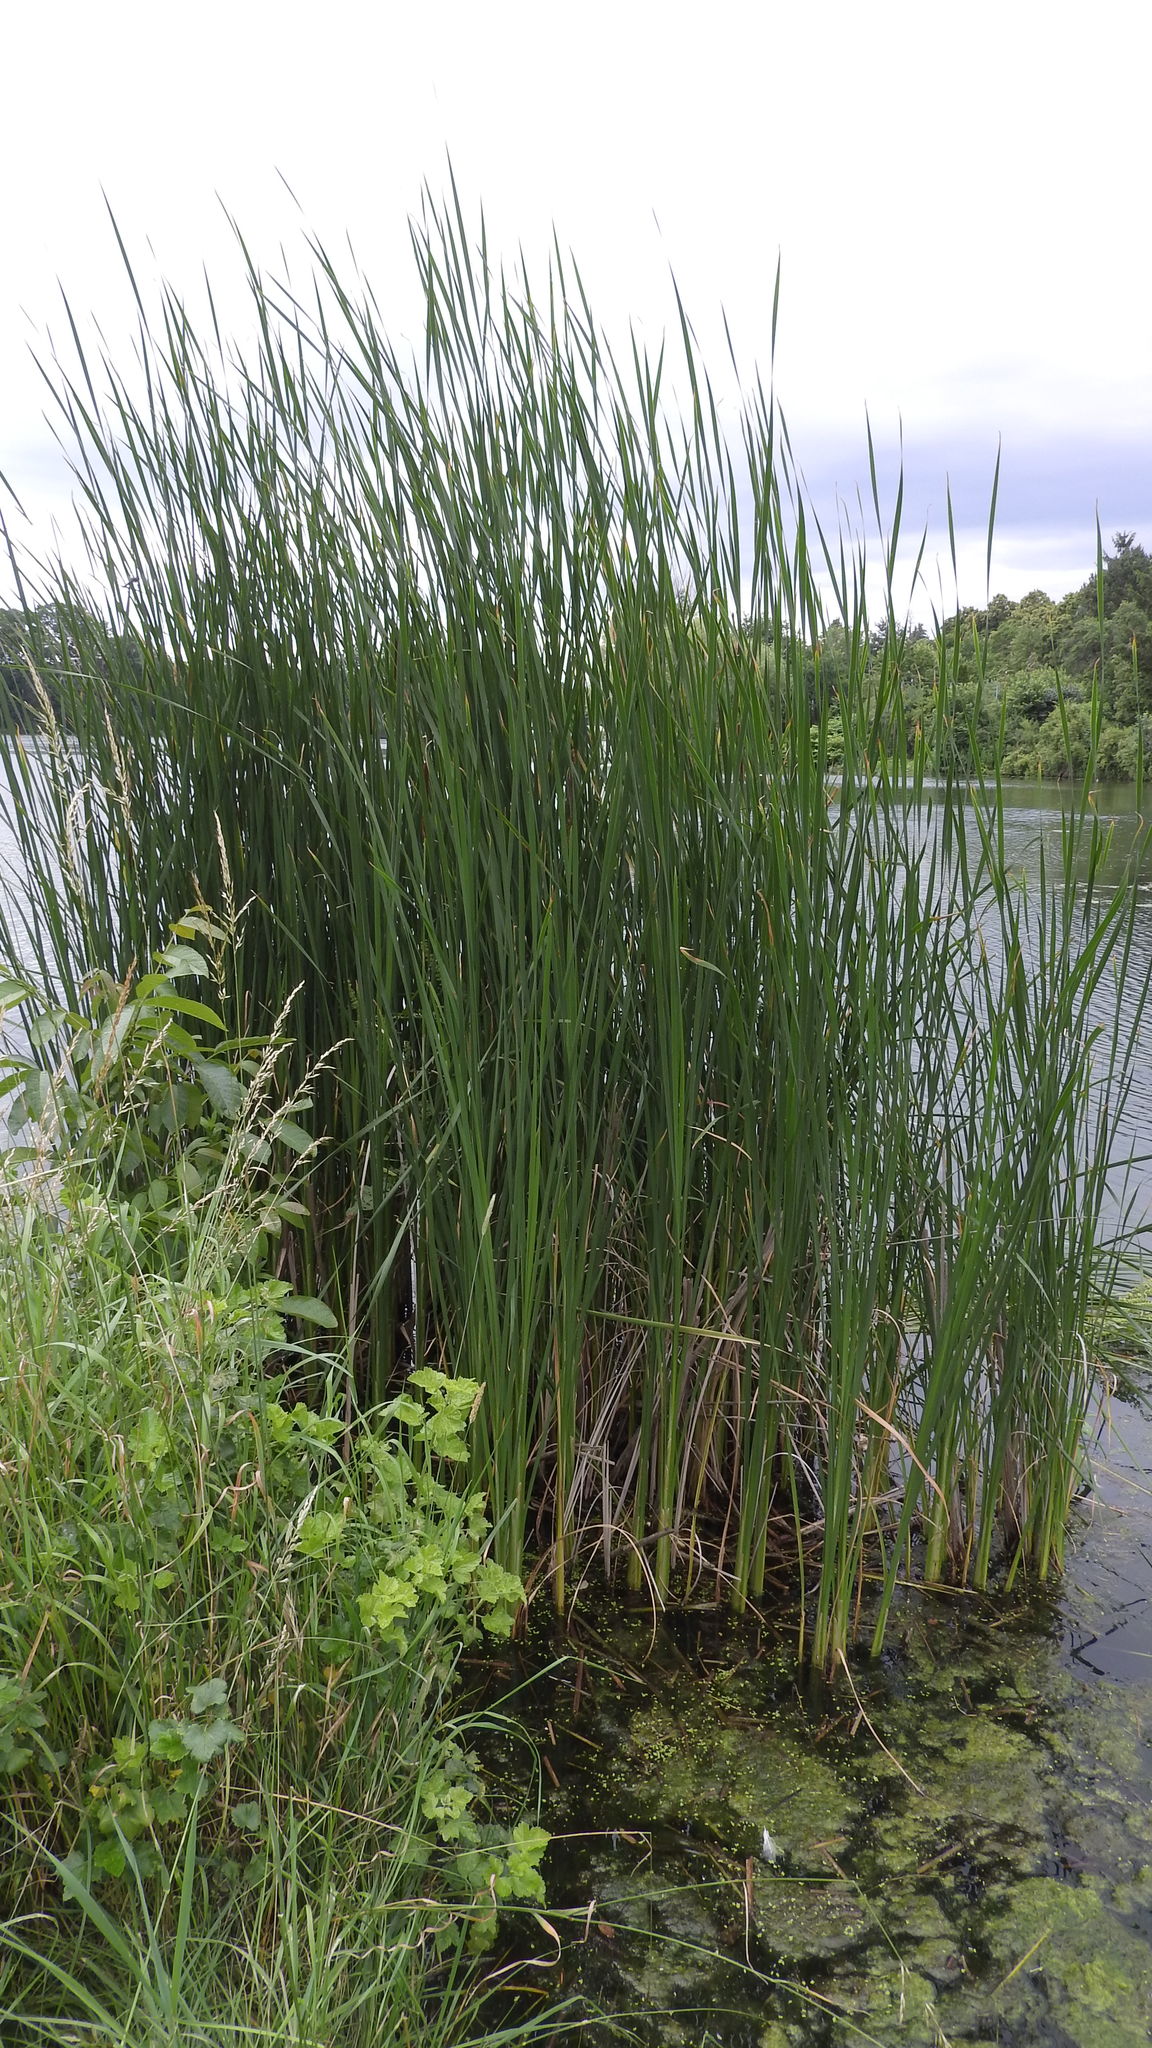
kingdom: Plantae
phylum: Tracheophyta
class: Liliopsida
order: Poales
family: Typhaceae
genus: Typha
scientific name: Typha angustifolia
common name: Lesser bulrush
